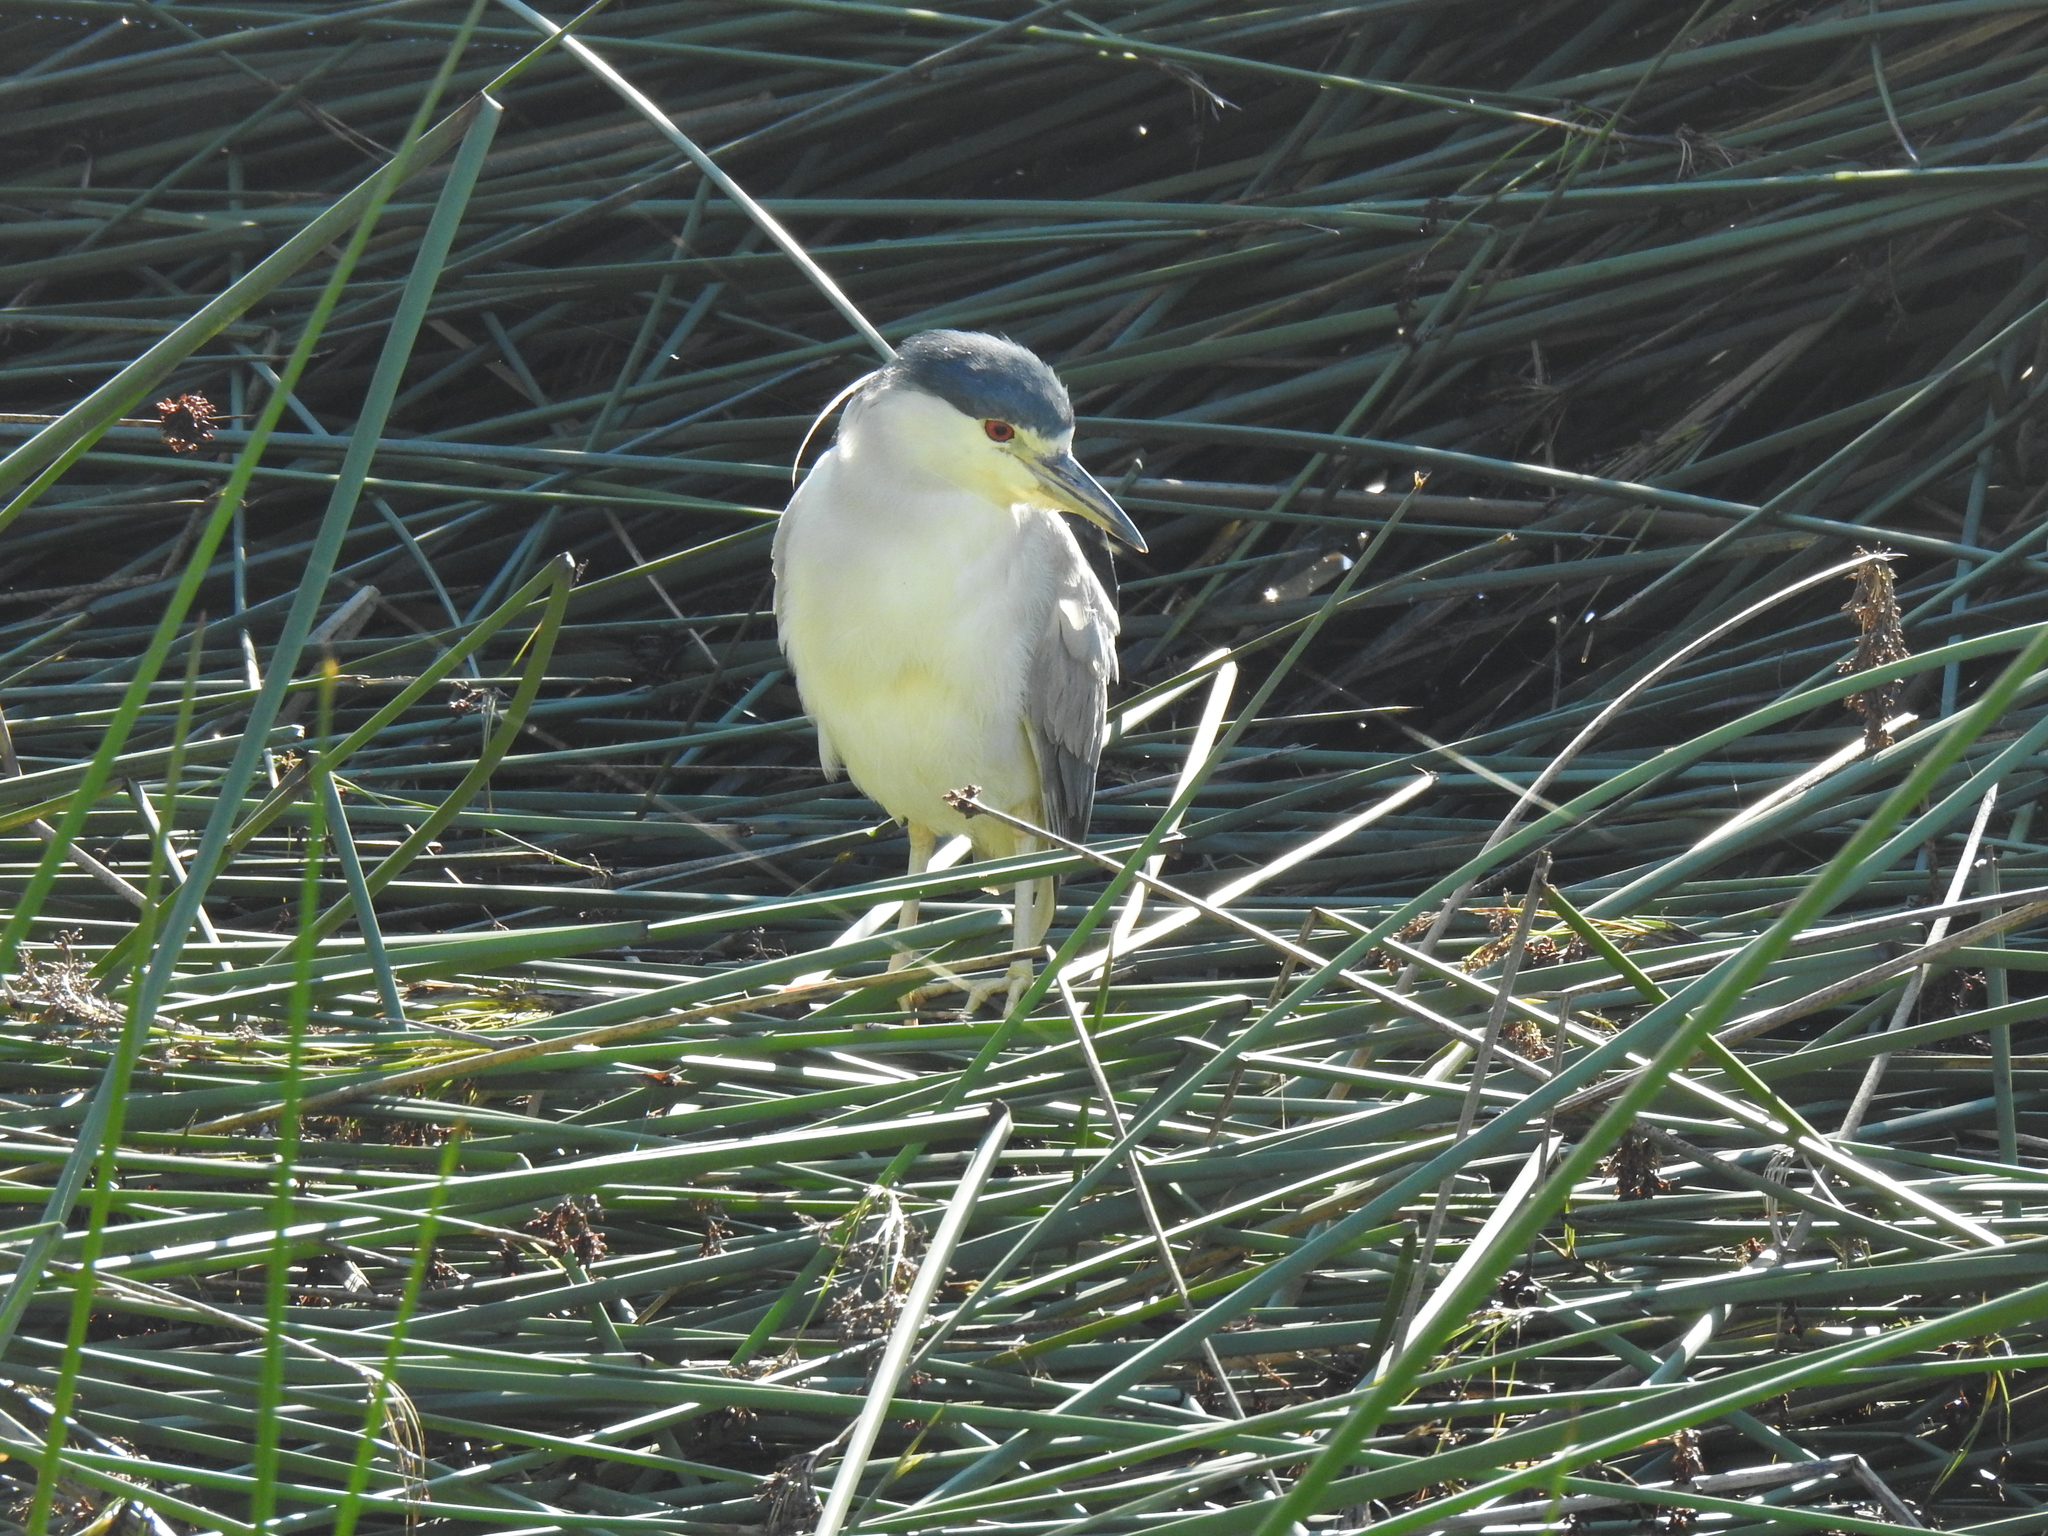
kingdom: Animalia
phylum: Chordata
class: Aves
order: Pelecaniformes
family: Ardeidae
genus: Nycticorax
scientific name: Nycticorax nycticorax
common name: Black-crowned night heron
